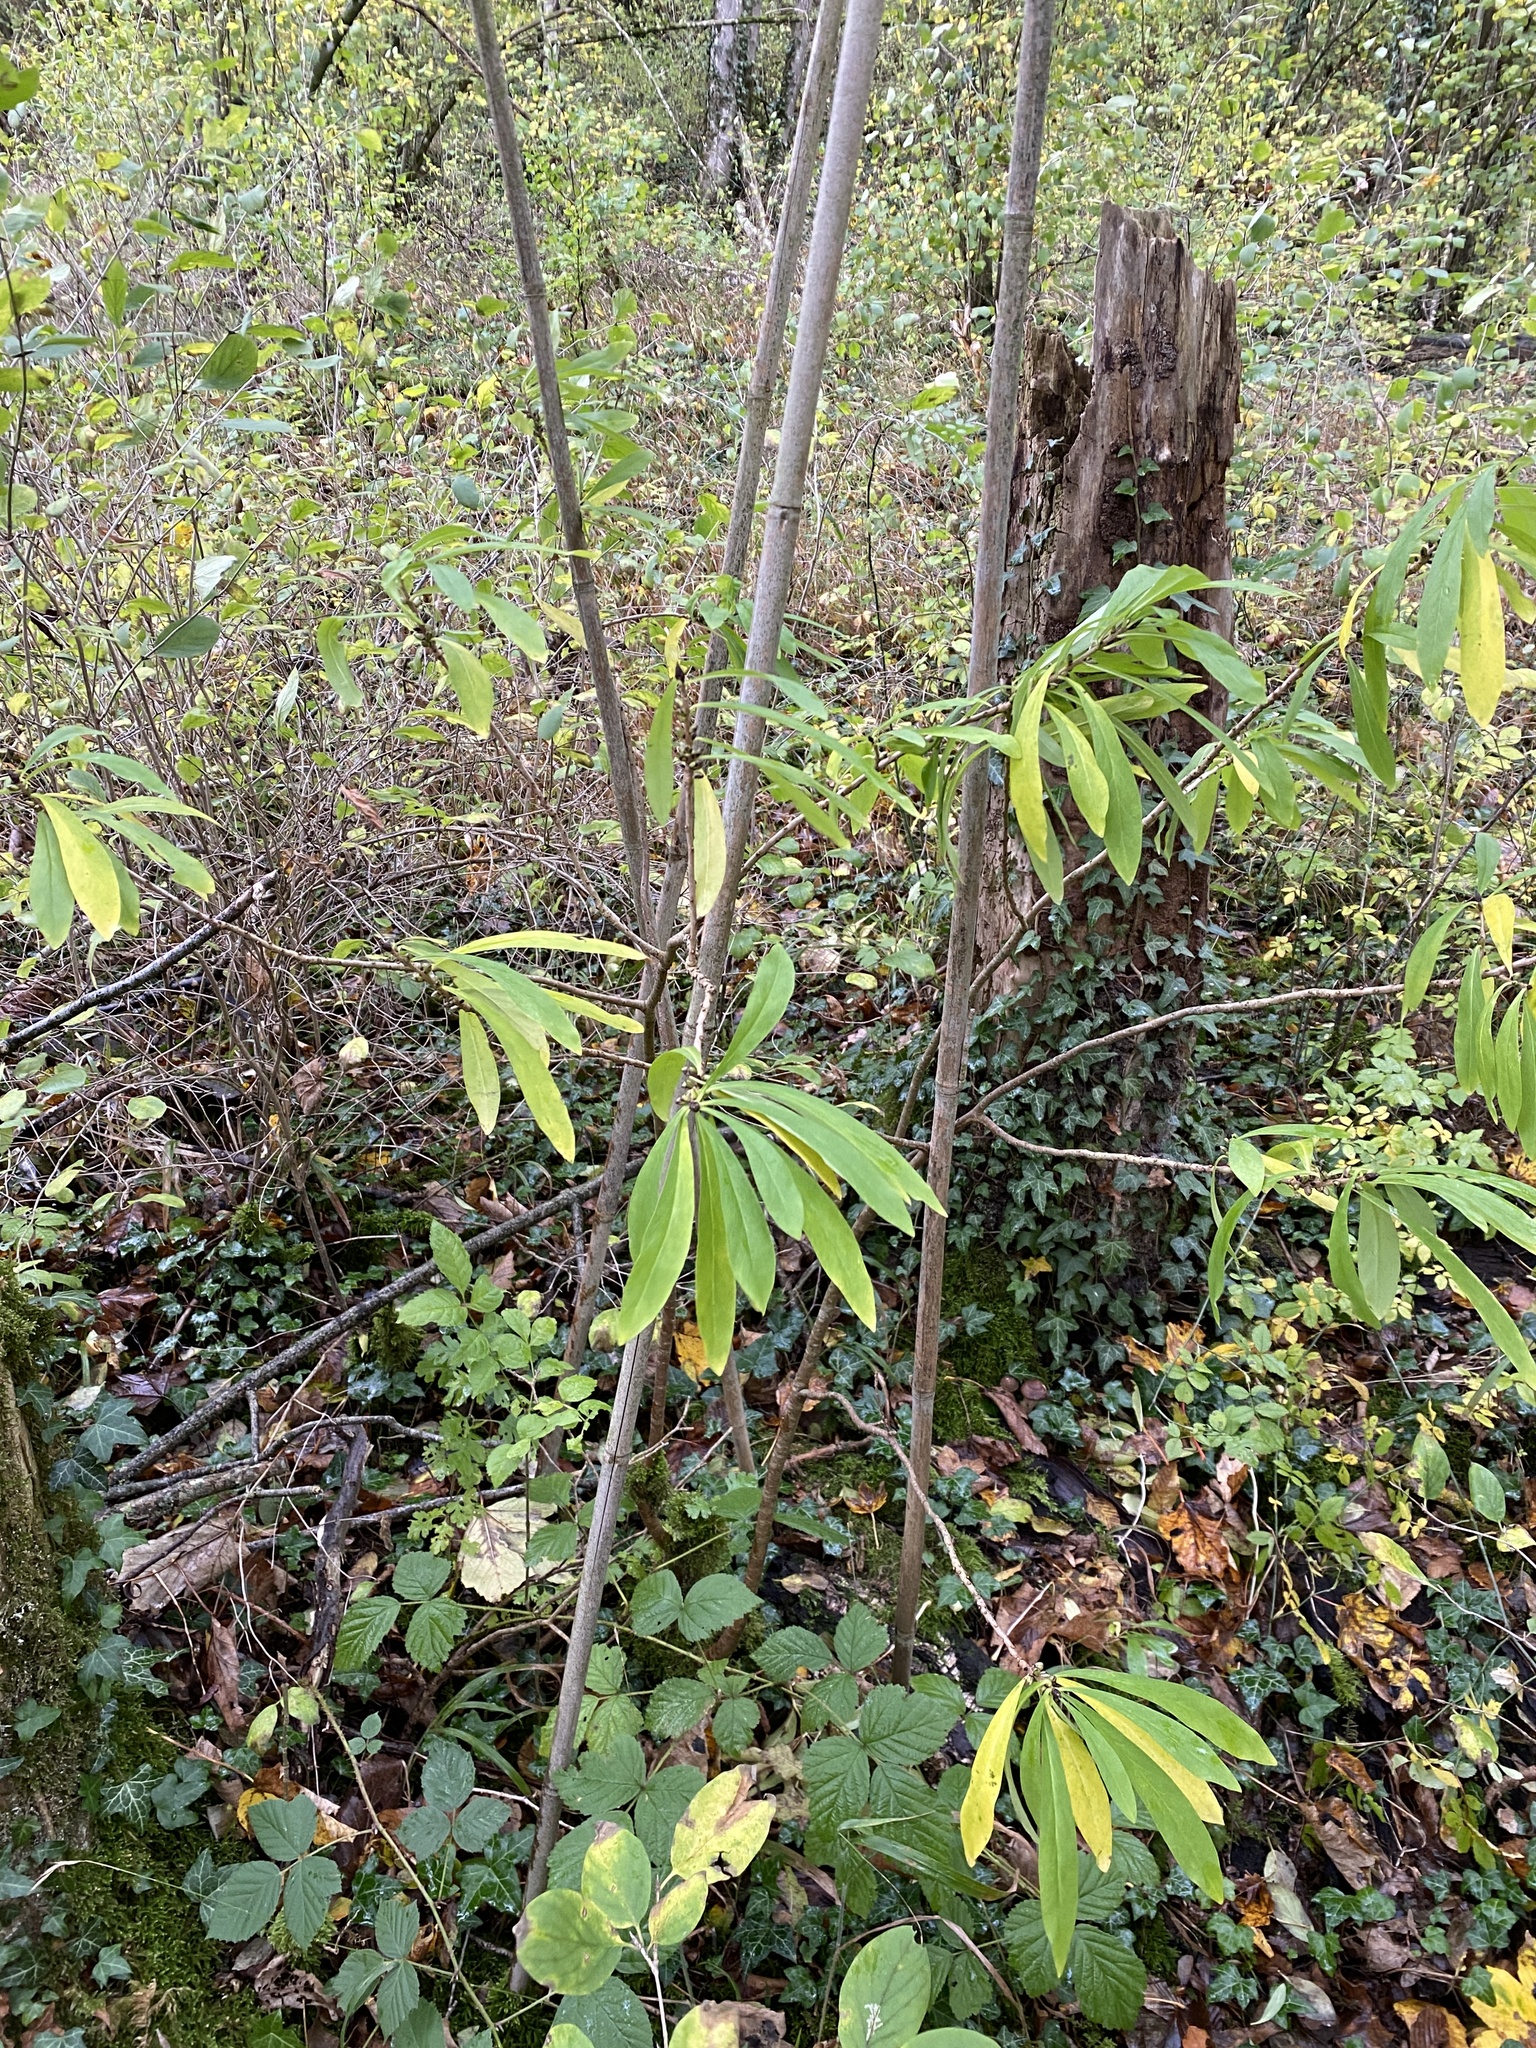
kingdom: Plantae
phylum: Tracheophyta
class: Magnoliopsida
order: Malvales
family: Thymelaeaceae
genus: Daphne
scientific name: Daphne mezereum
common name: Mezereon
